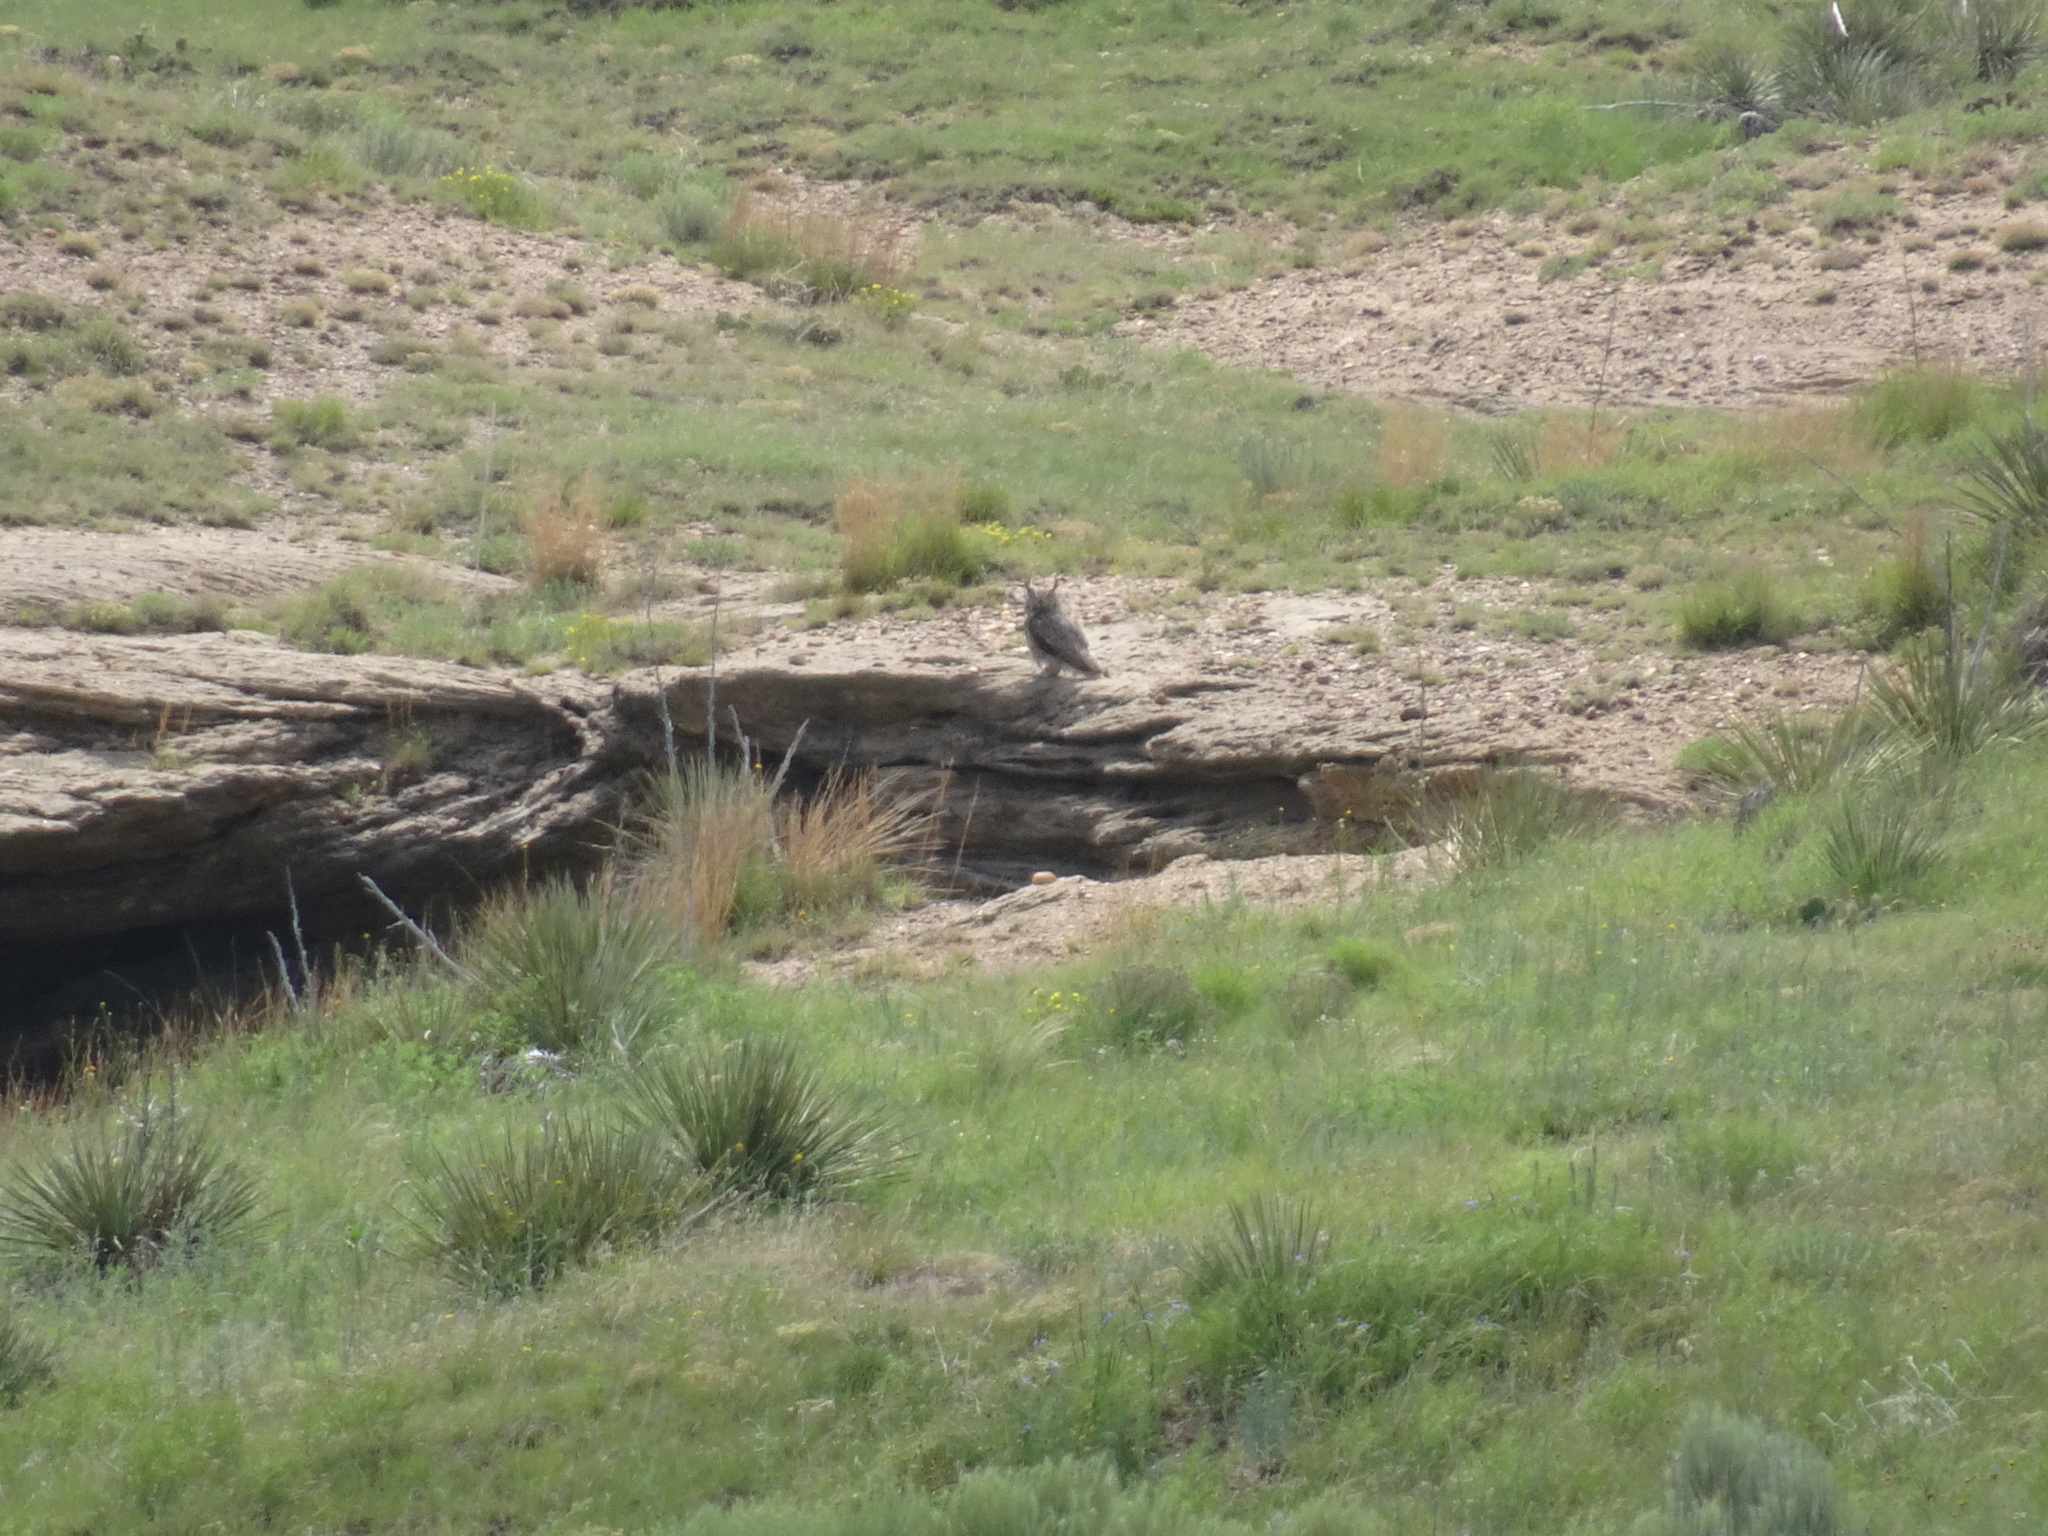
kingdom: Animalia
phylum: Chordata
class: Aves
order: Strigiformes
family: Strigidae
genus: Bubo
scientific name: Bubo virginianus
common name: Great horned owl
